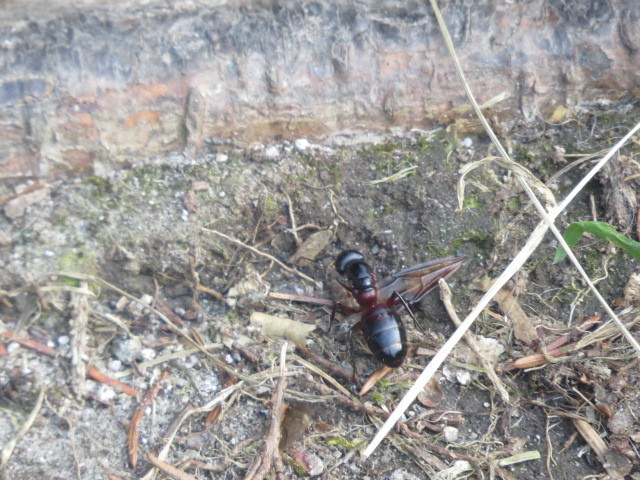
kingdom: Animalia
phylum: Arthropoda
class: Insecta
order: Hymenoptera
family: Formicidae
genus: Camponotus
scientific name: Camponotus ligniperdus
